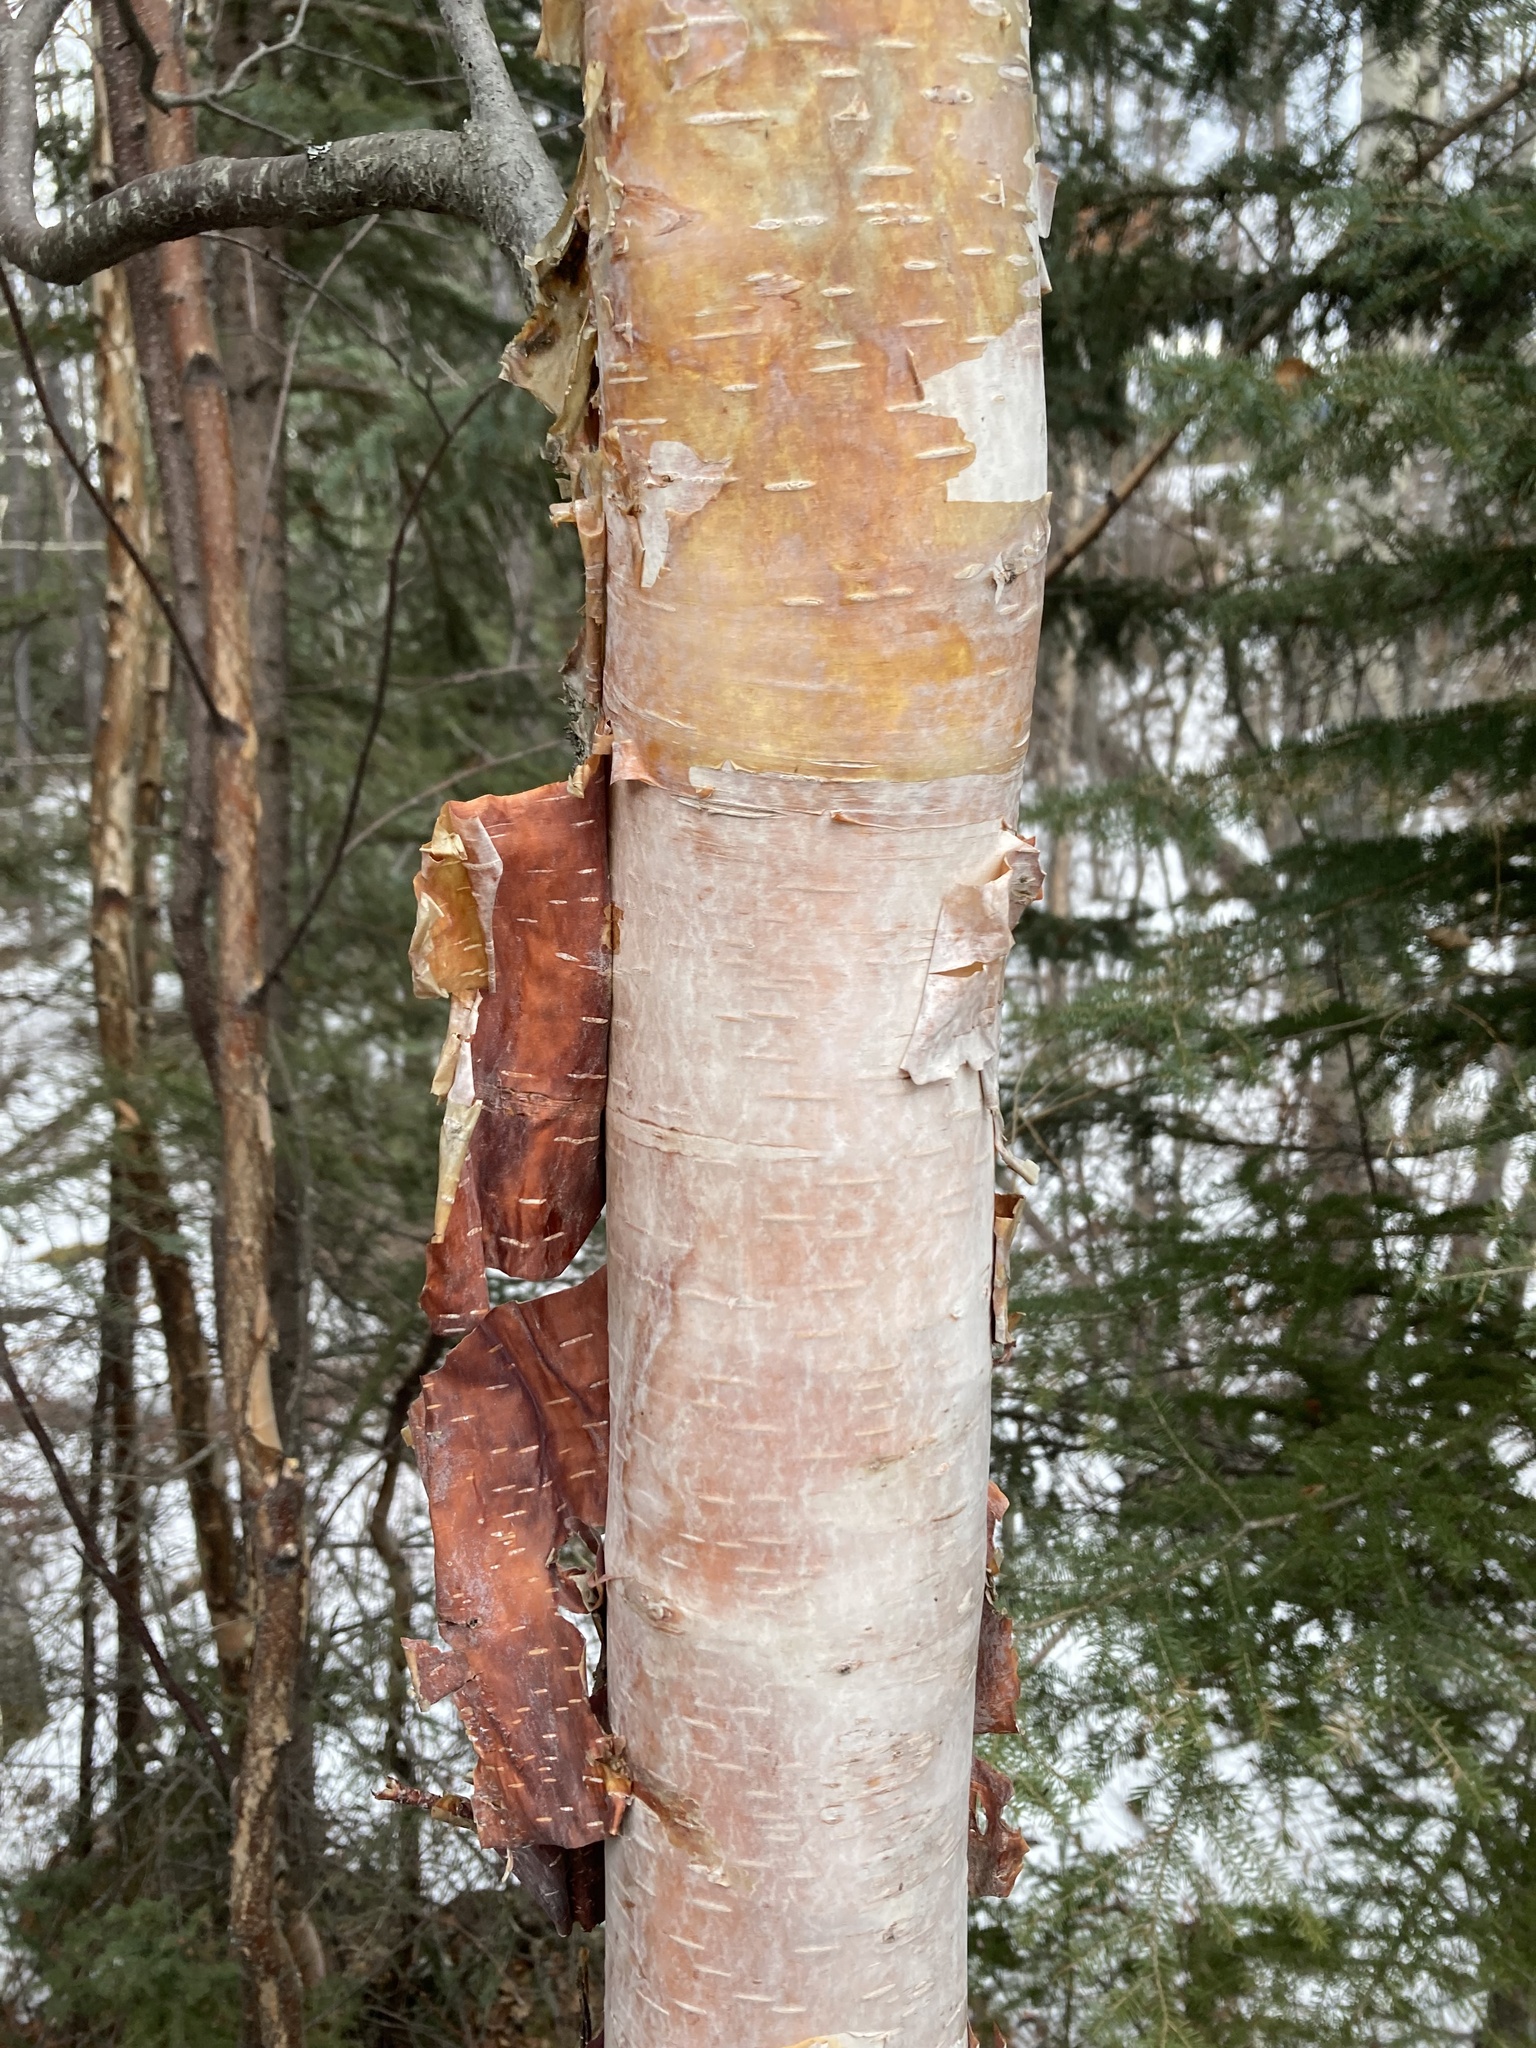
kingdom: Plantae
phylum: Tracheophyta
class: Magnoliopsida
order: Fagales
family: Betulaceae
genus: Betula
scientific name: Betula papyrifera
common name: Paper birch
